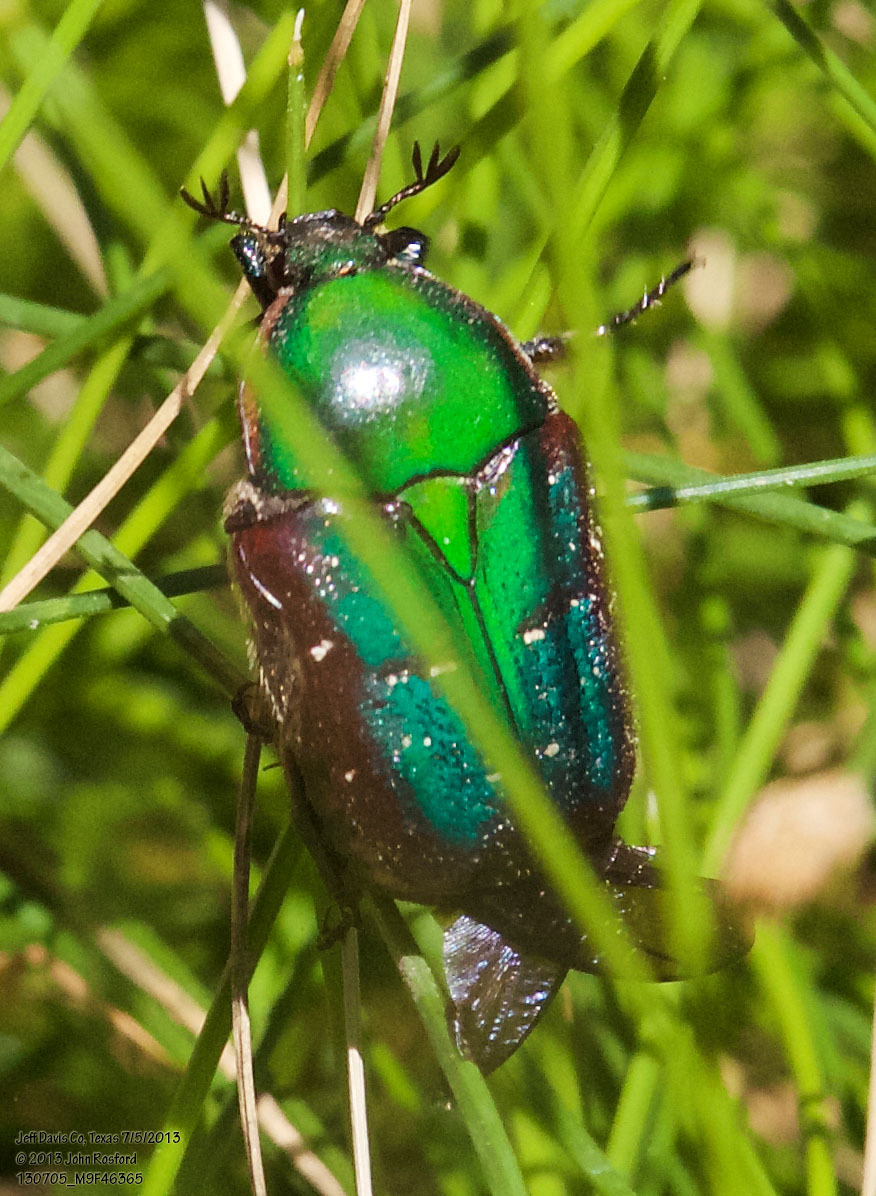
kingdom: Animalia
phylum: Arthropoda
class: Insecta
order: Coleoptera
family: Scarabaeidae
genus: Euphoria
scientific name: Euphoria fulgida
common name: Emerald euphoria
